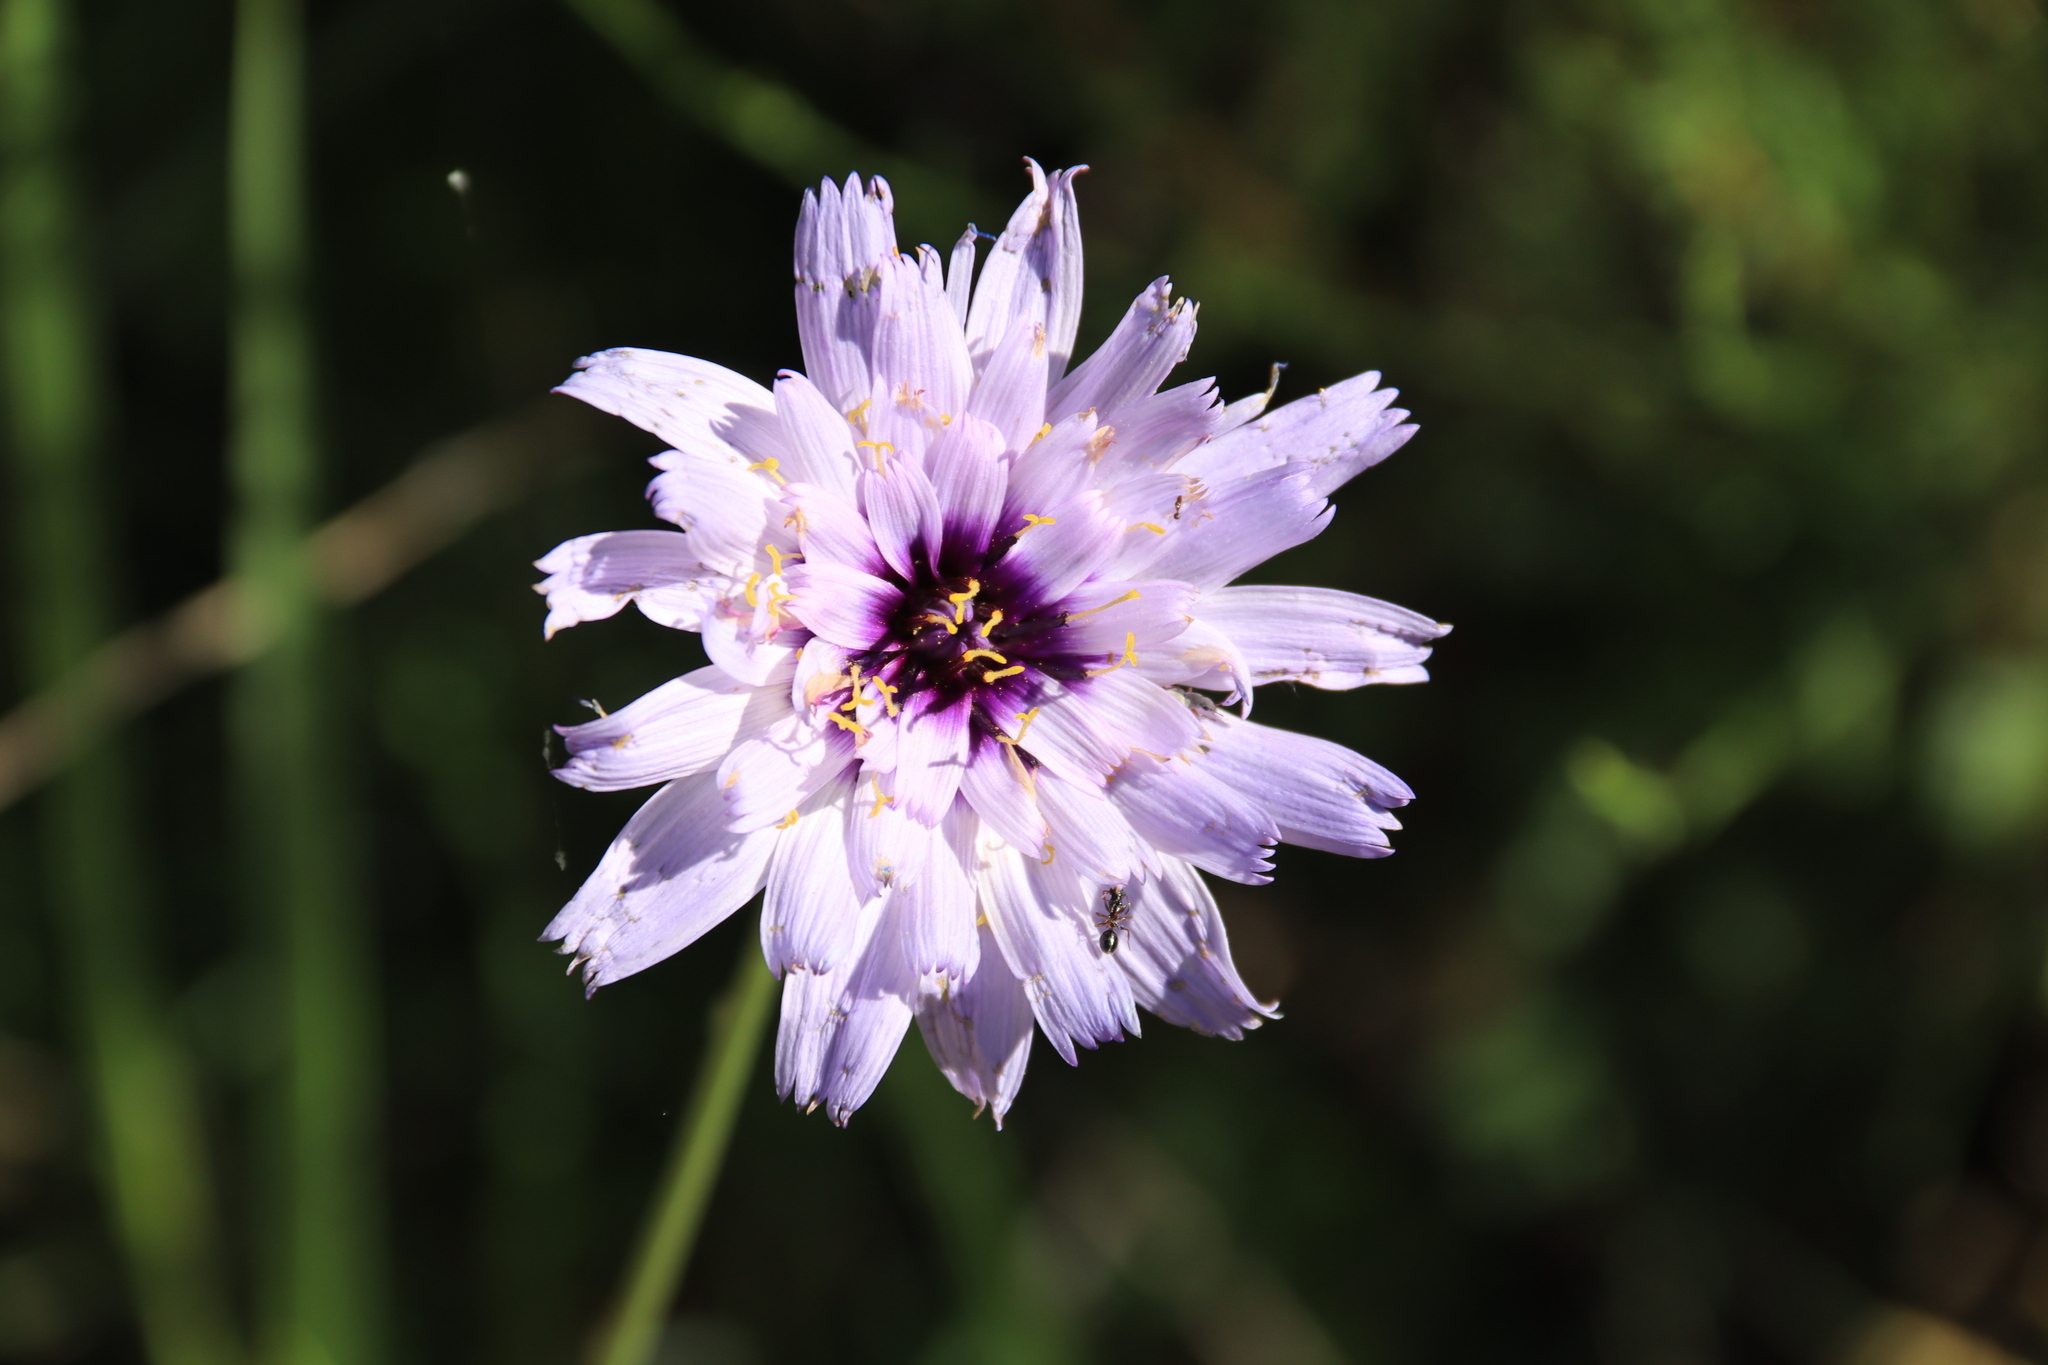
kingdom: Plantae
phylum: Tracheophyta
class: Magnoliopsida
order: Asterales
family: Asteraceae
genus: Catananche
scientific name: Catananche caerulea
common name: Blue cupidone
